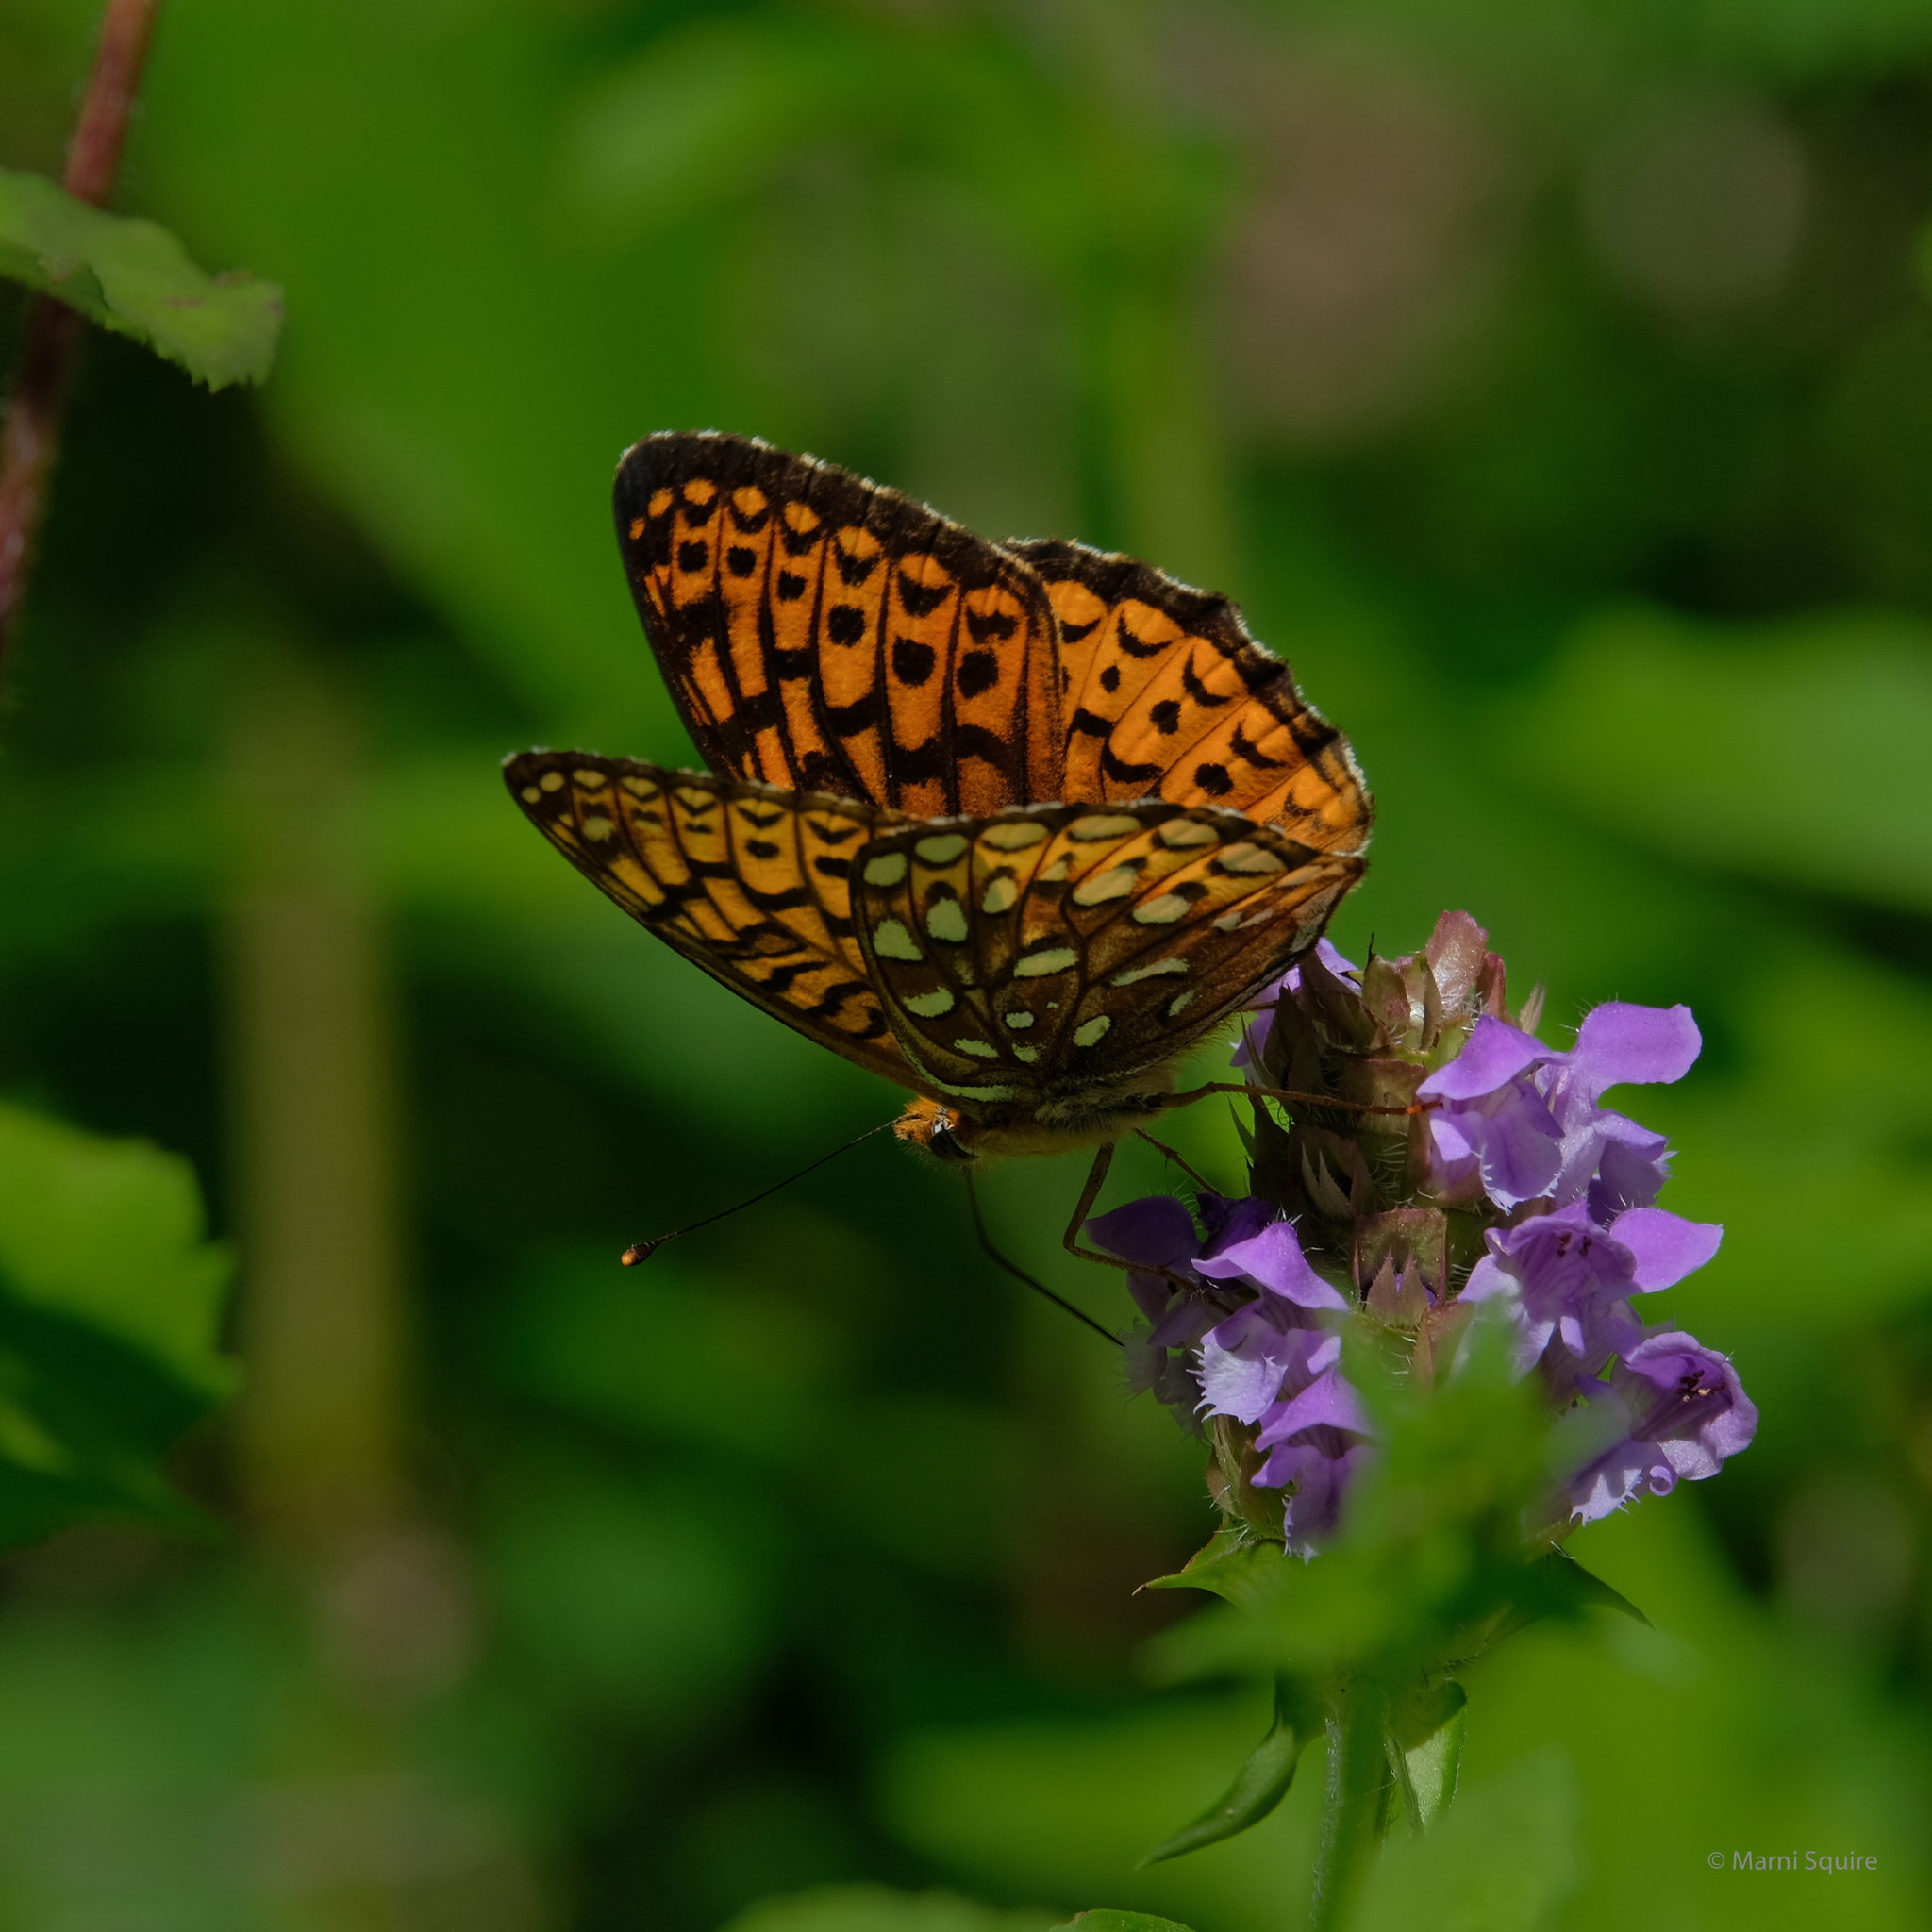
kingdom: Animalia
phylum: Arthropoda
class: Insecta
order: Lepidoptera
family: Nymphalidae
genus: Speyeria
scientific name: Speyeria atlantis
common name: Atlantis fritillary
